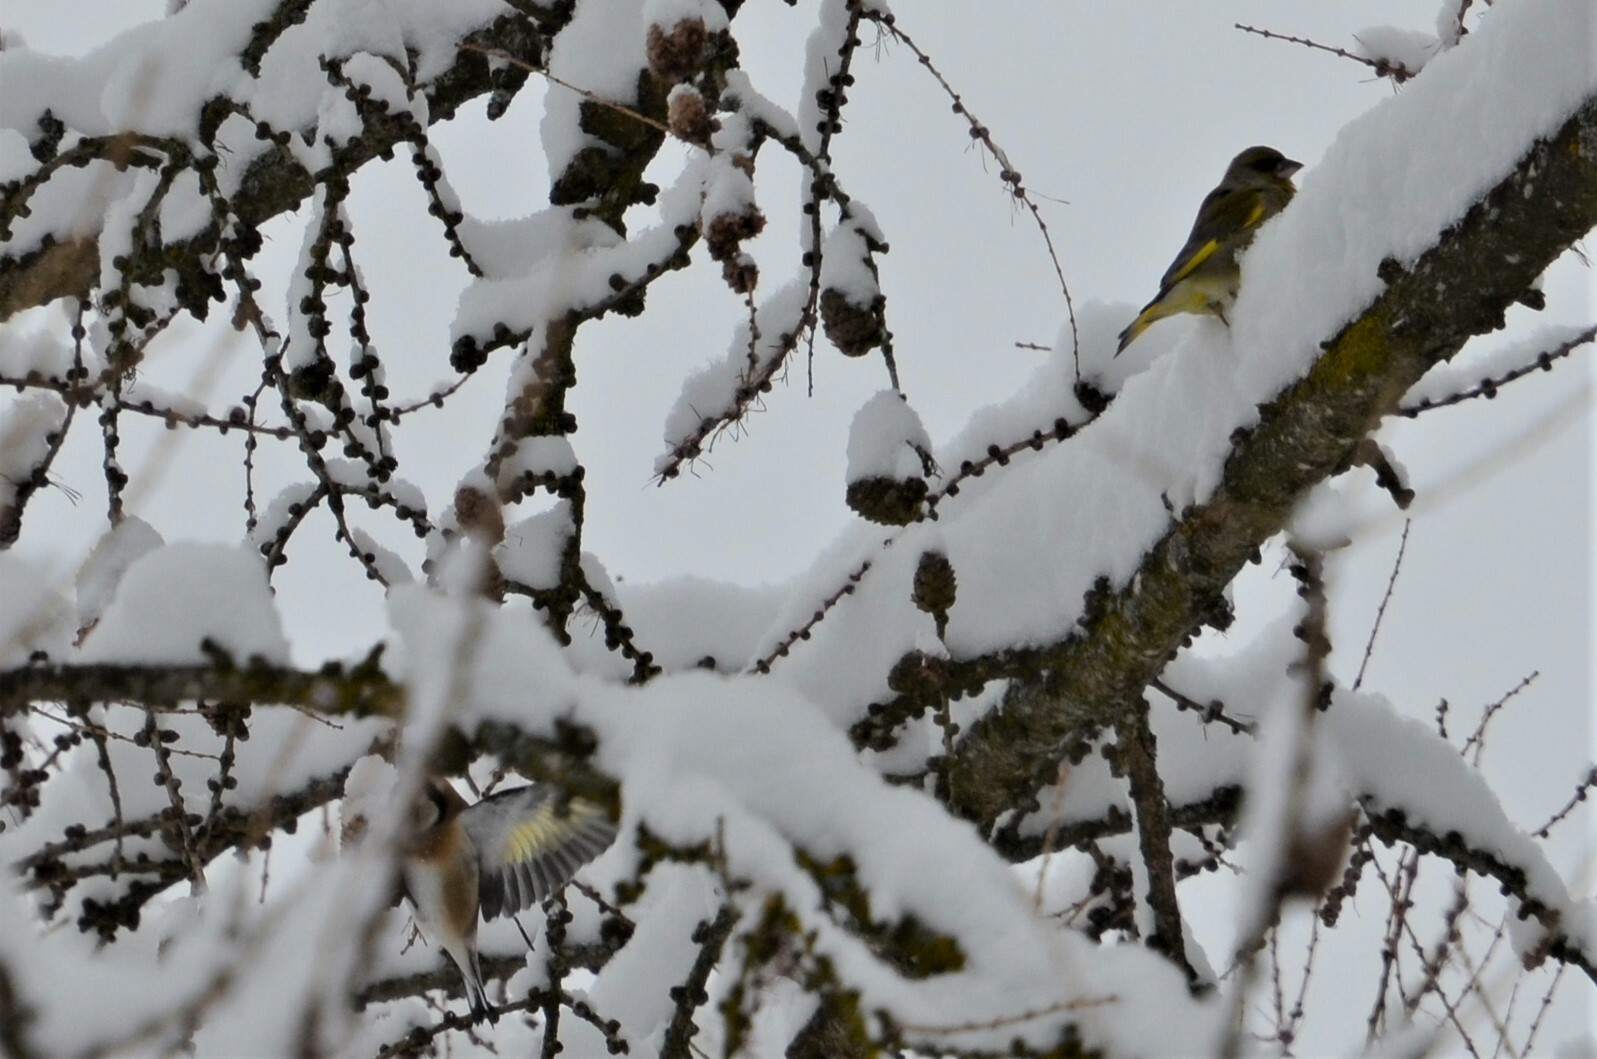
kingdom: Plantae
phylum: Tracheophyta
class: Liliopsida
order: Poales
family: Poaceae
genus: Chloris
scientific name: Chloris chloris
